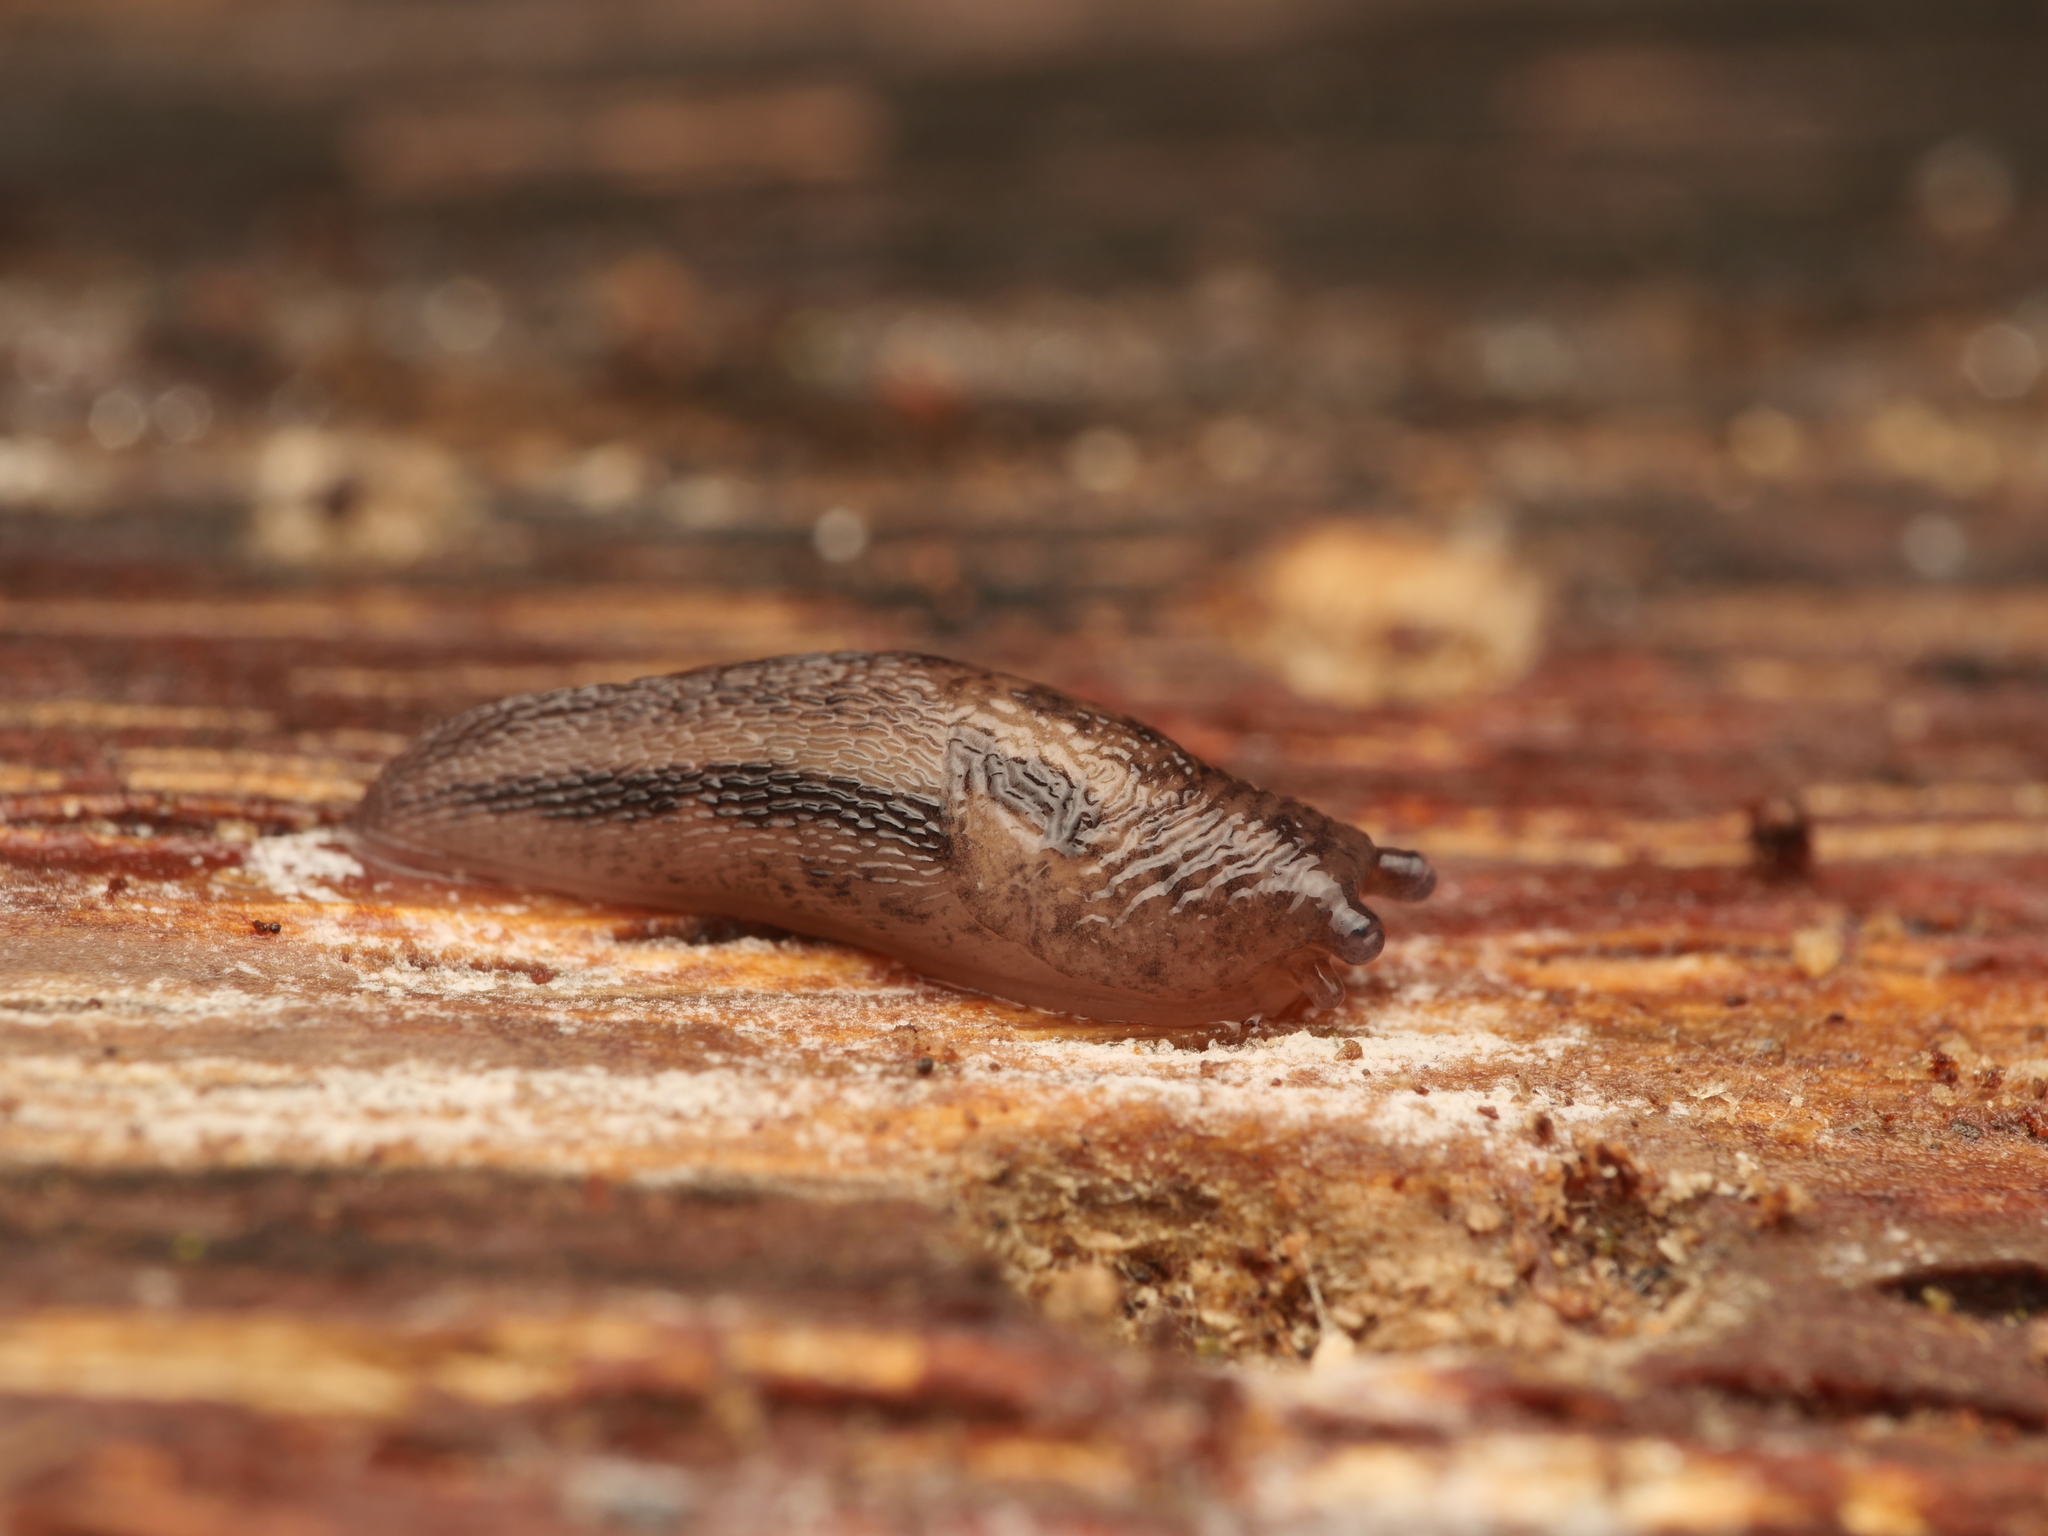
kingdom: Animalia
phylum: Mollusca
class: Gastropoda
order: Stylommatophora
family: Limacidae
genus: Limax
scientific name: Limax maximus
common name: Great grey slug
